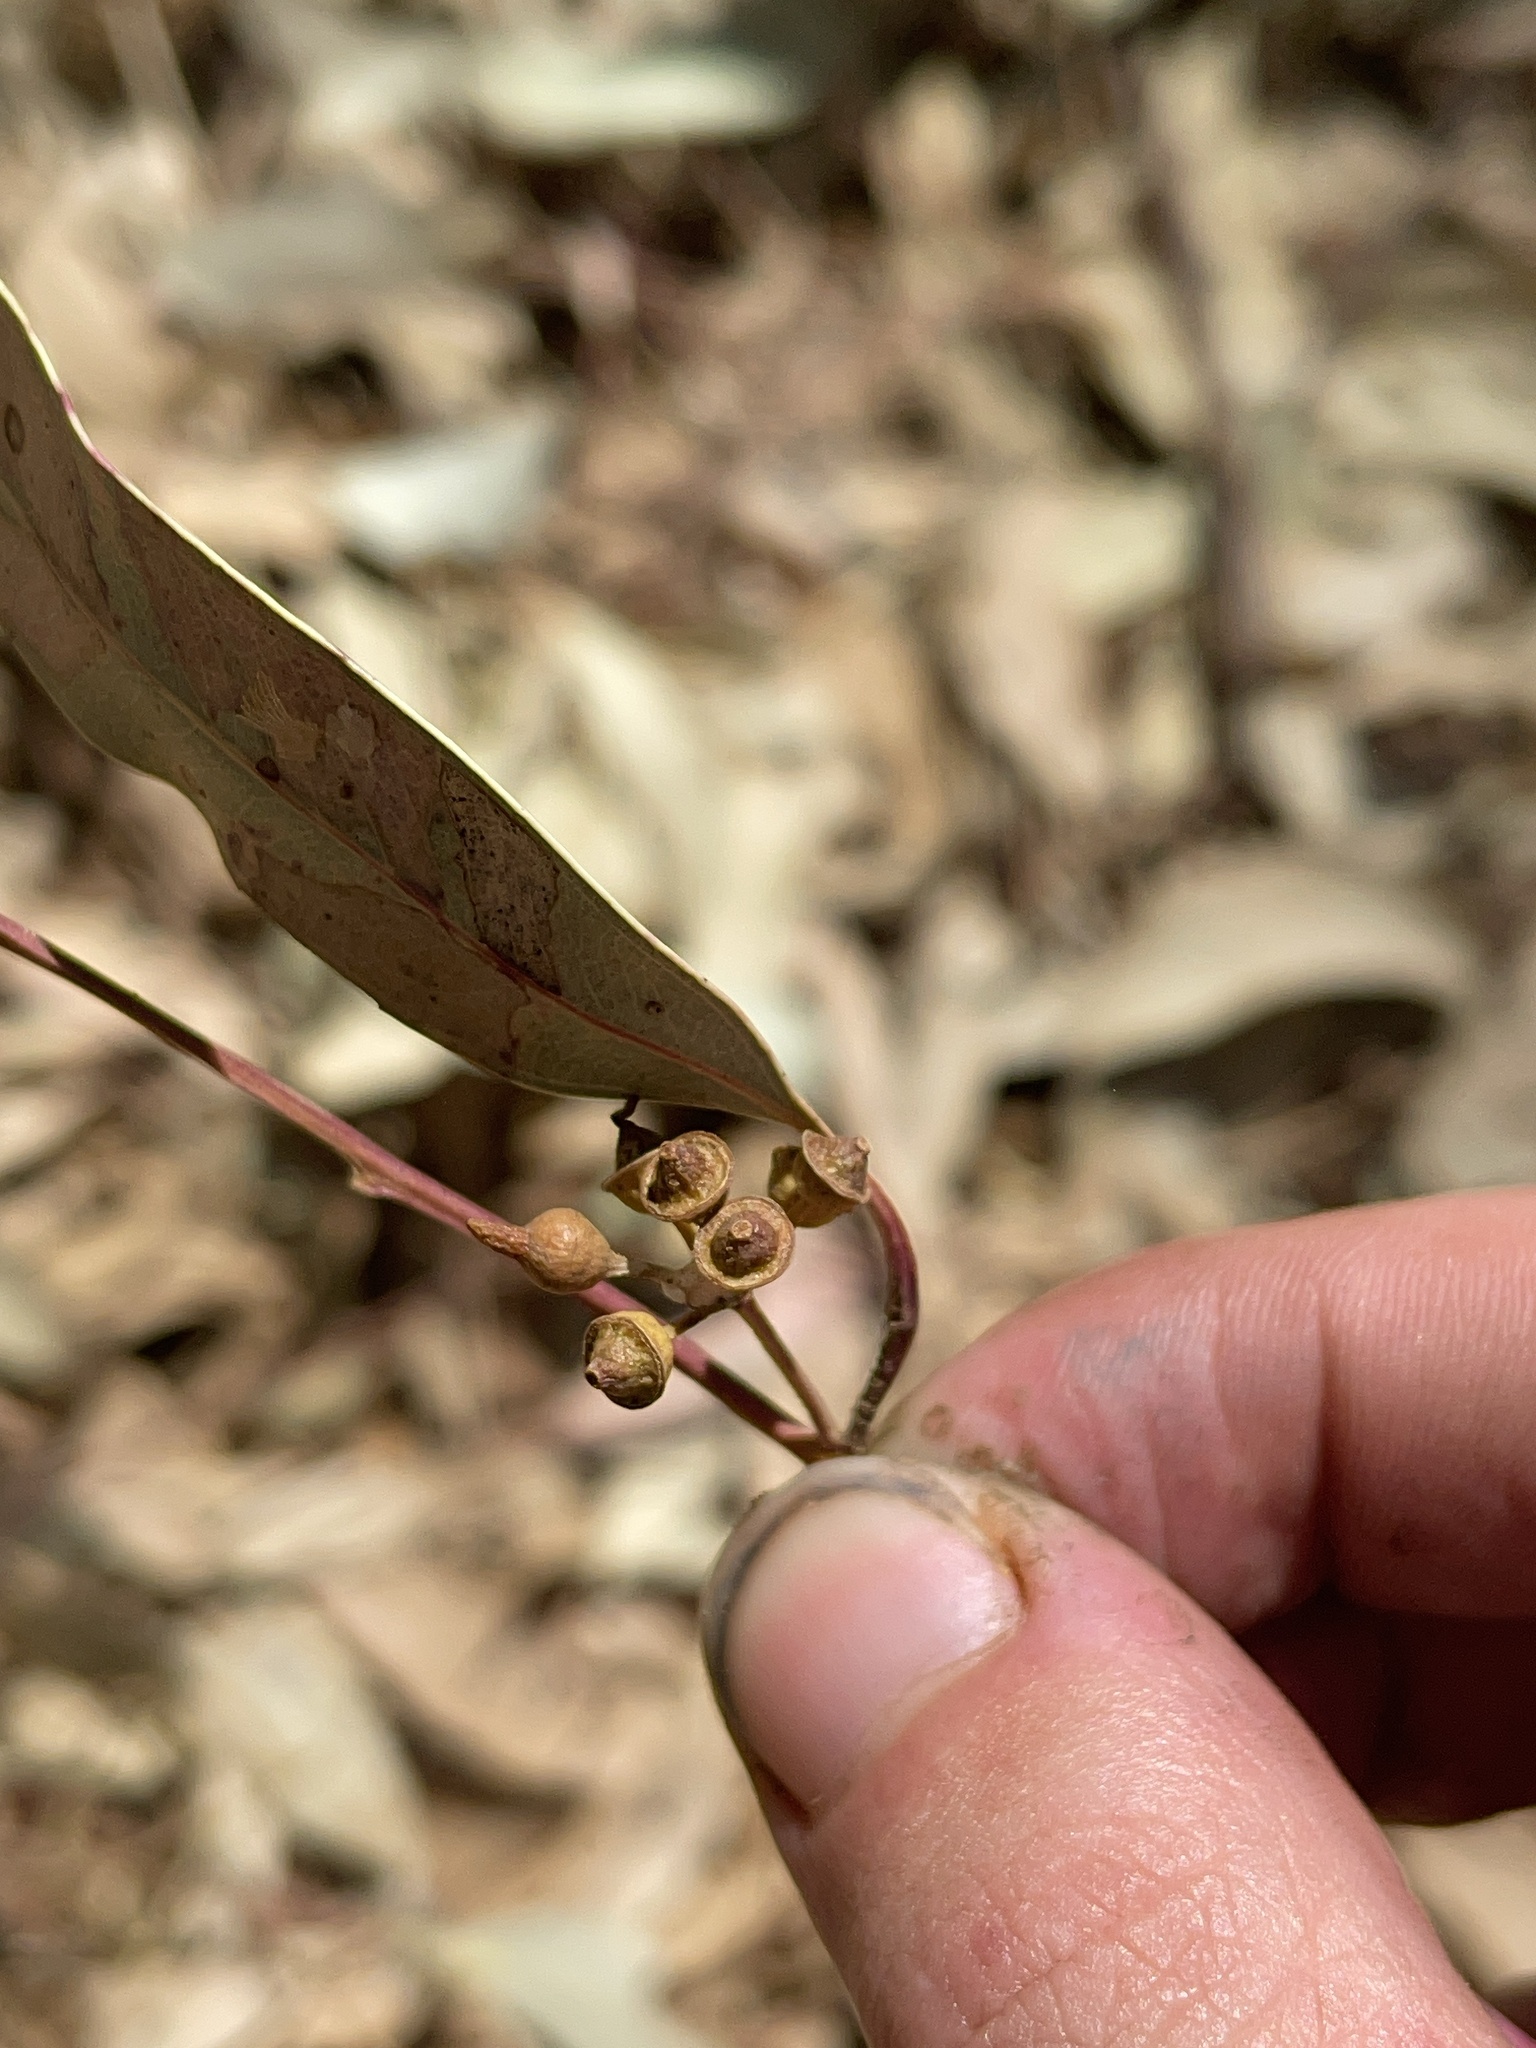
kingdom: Plantae
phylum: Tracheophyta
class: Magnoliopsida
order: Myrtales
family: Myrtaceae
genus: Eucalyptus
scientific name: Eucalyptus camaldulensis
